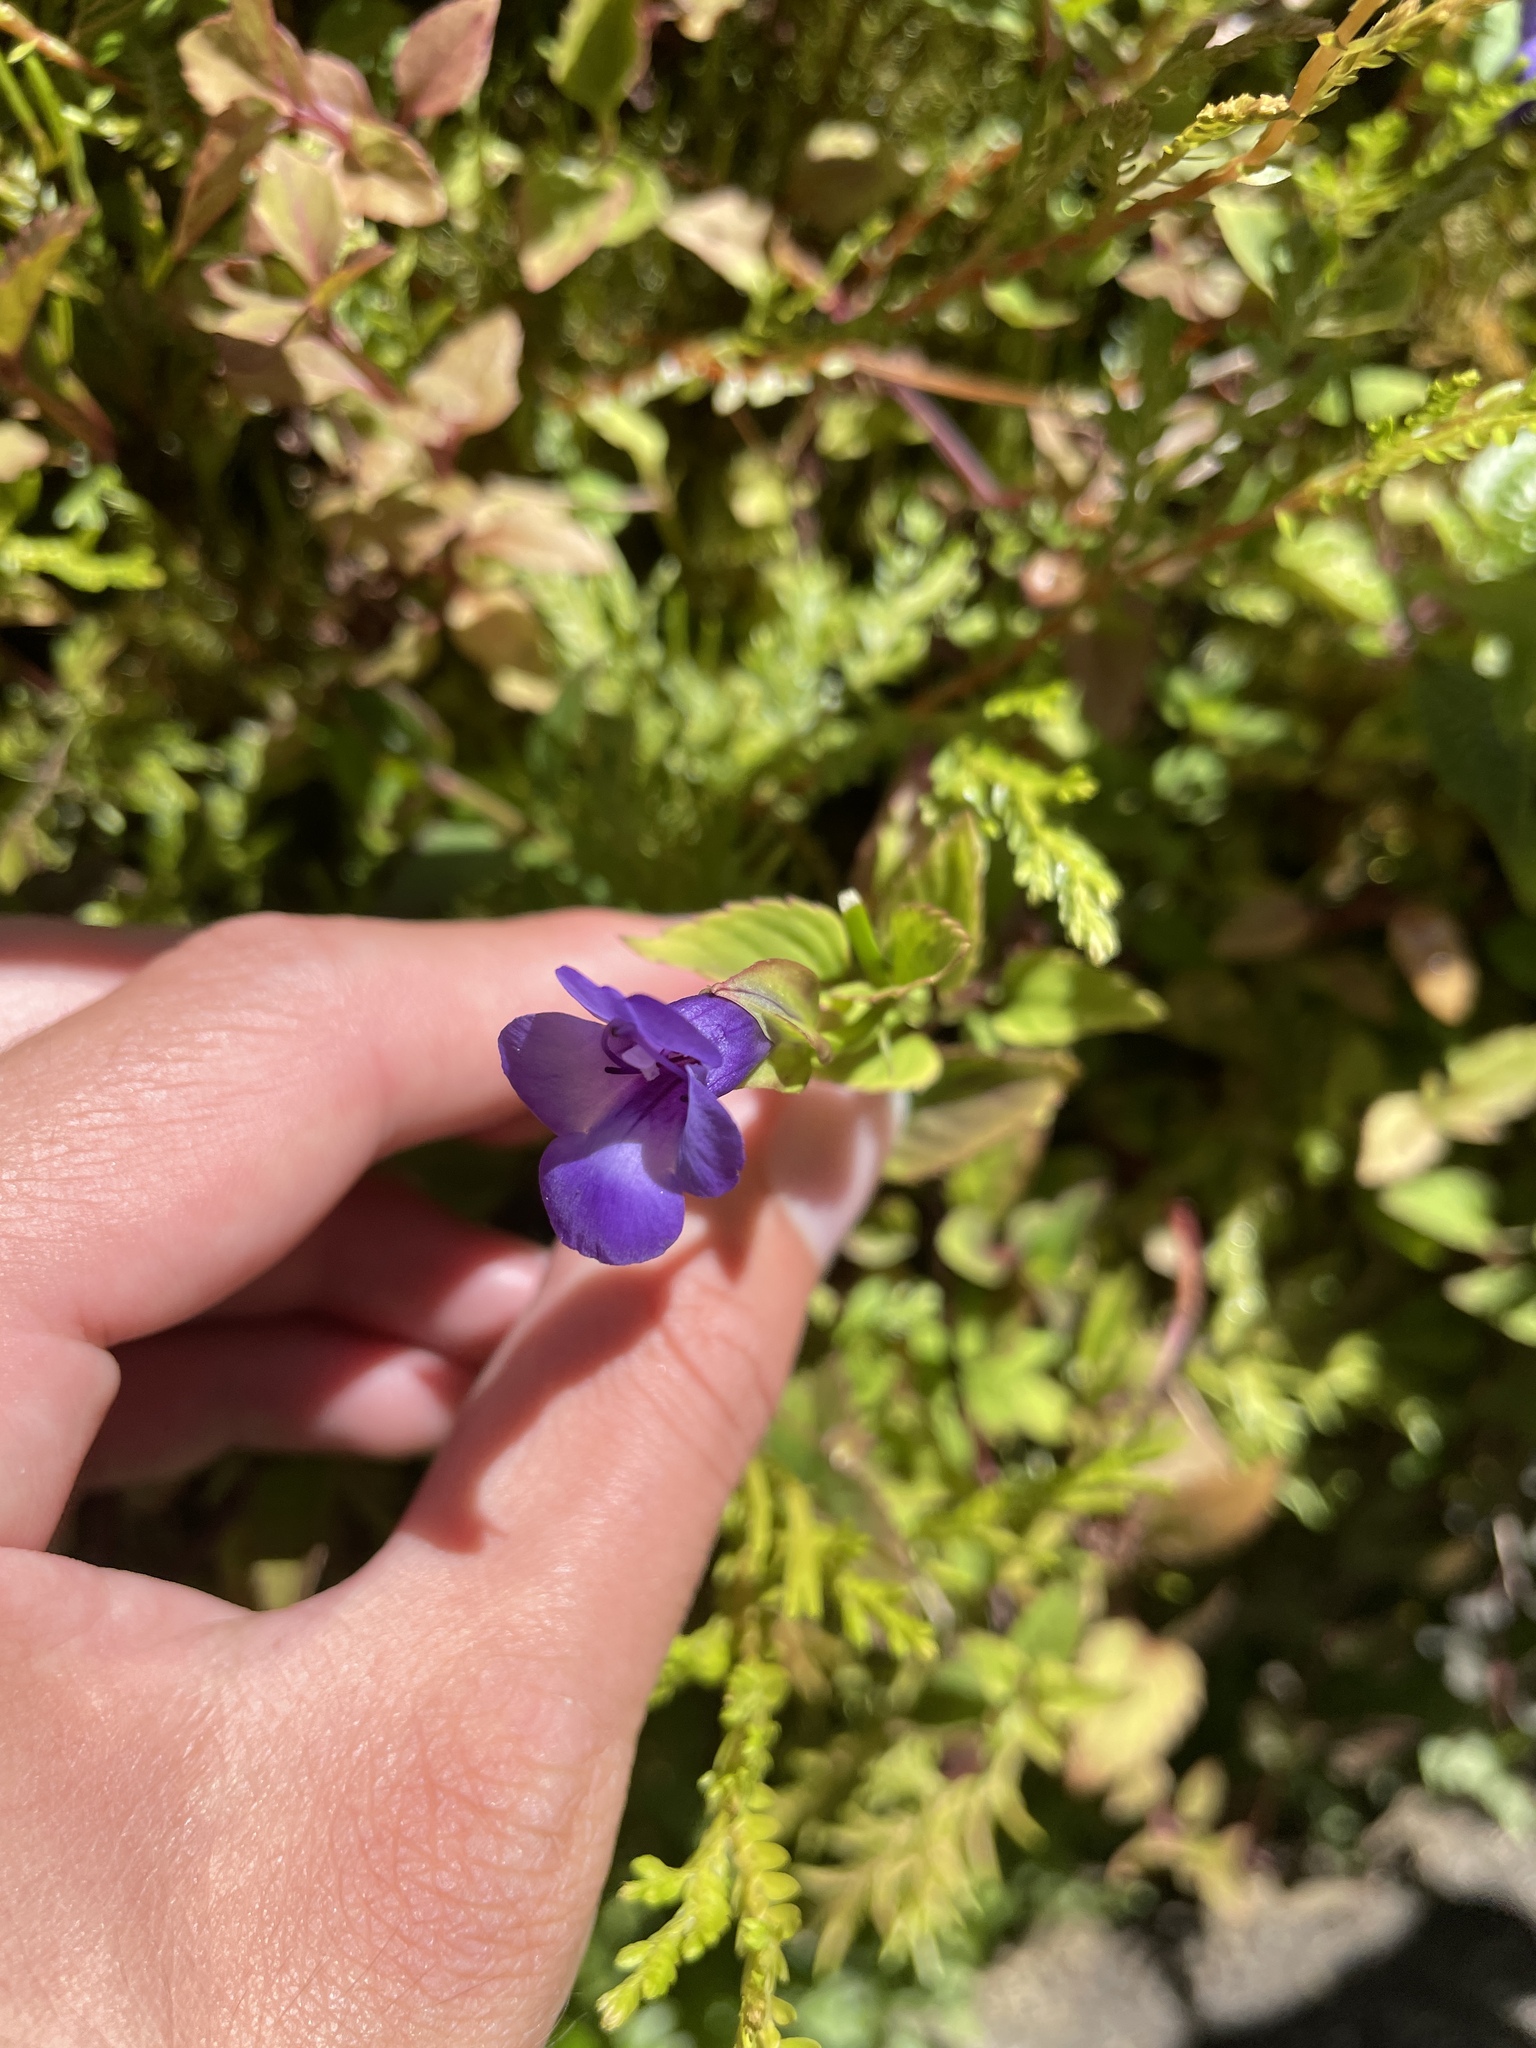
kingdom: Plantae
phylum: Tracheophyta
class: Magnoliopsida
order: Lamiales
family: Linderniaceae
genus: Torenia
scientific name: Torenia asiatica
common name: Wishbone flower
